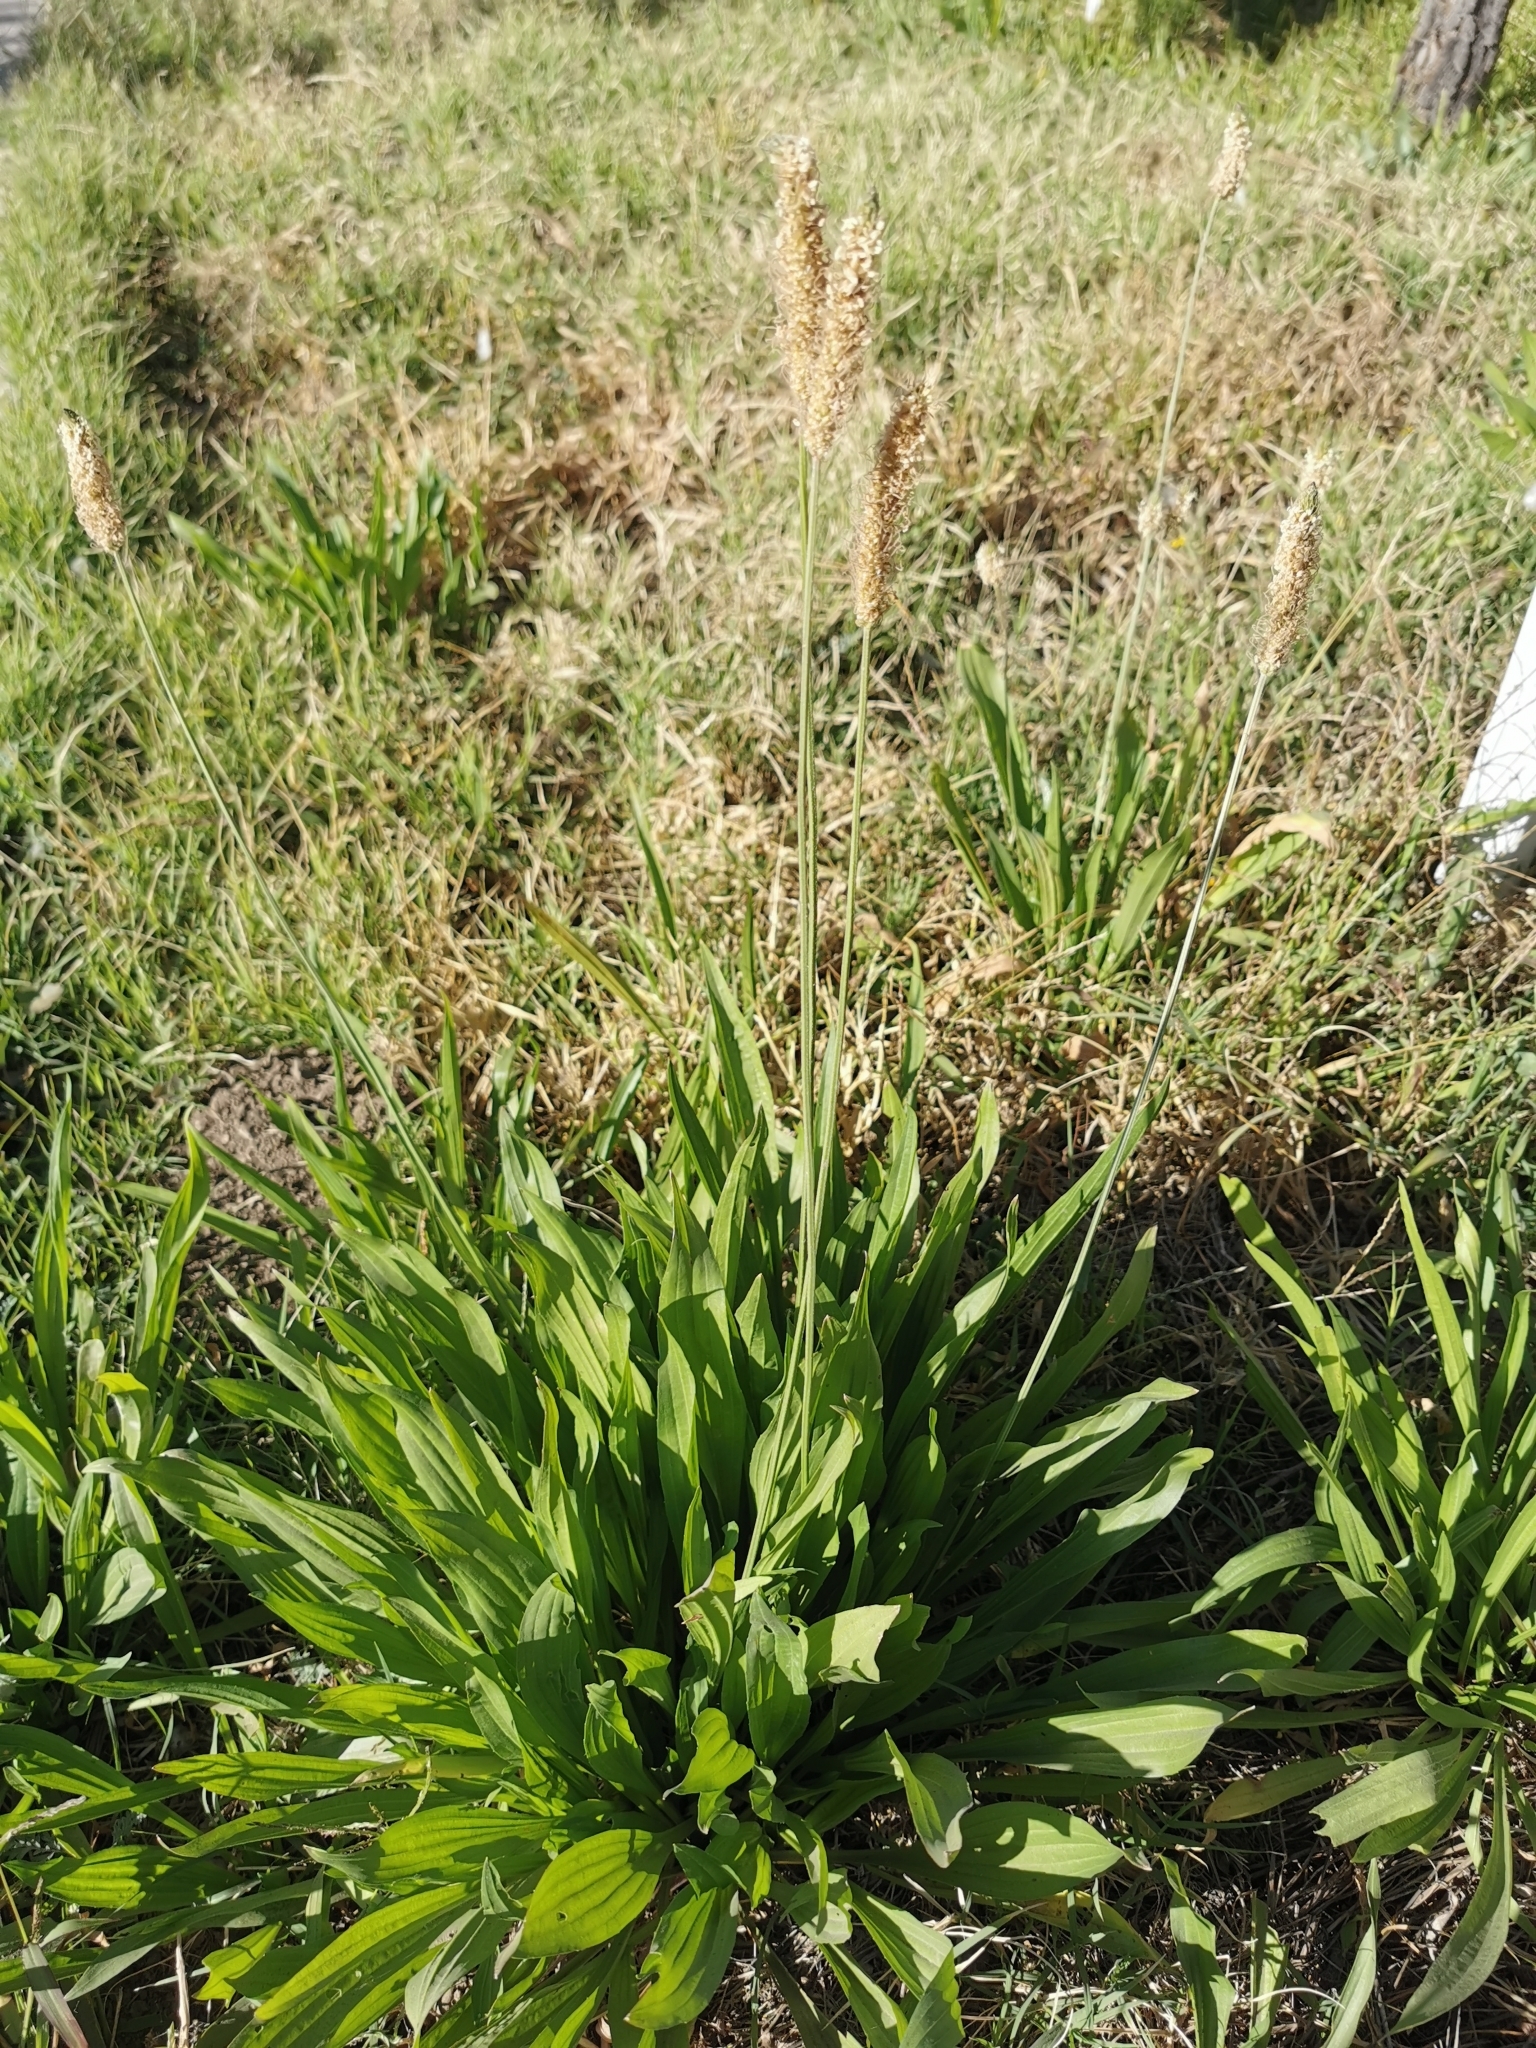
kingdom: Plantae
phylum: Tracheophyta
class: Magnoliopsida
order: Lamiales
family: Plantaginaceae
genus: Plantago
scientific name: Plantago lanceolata
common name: Ribwort plantain
